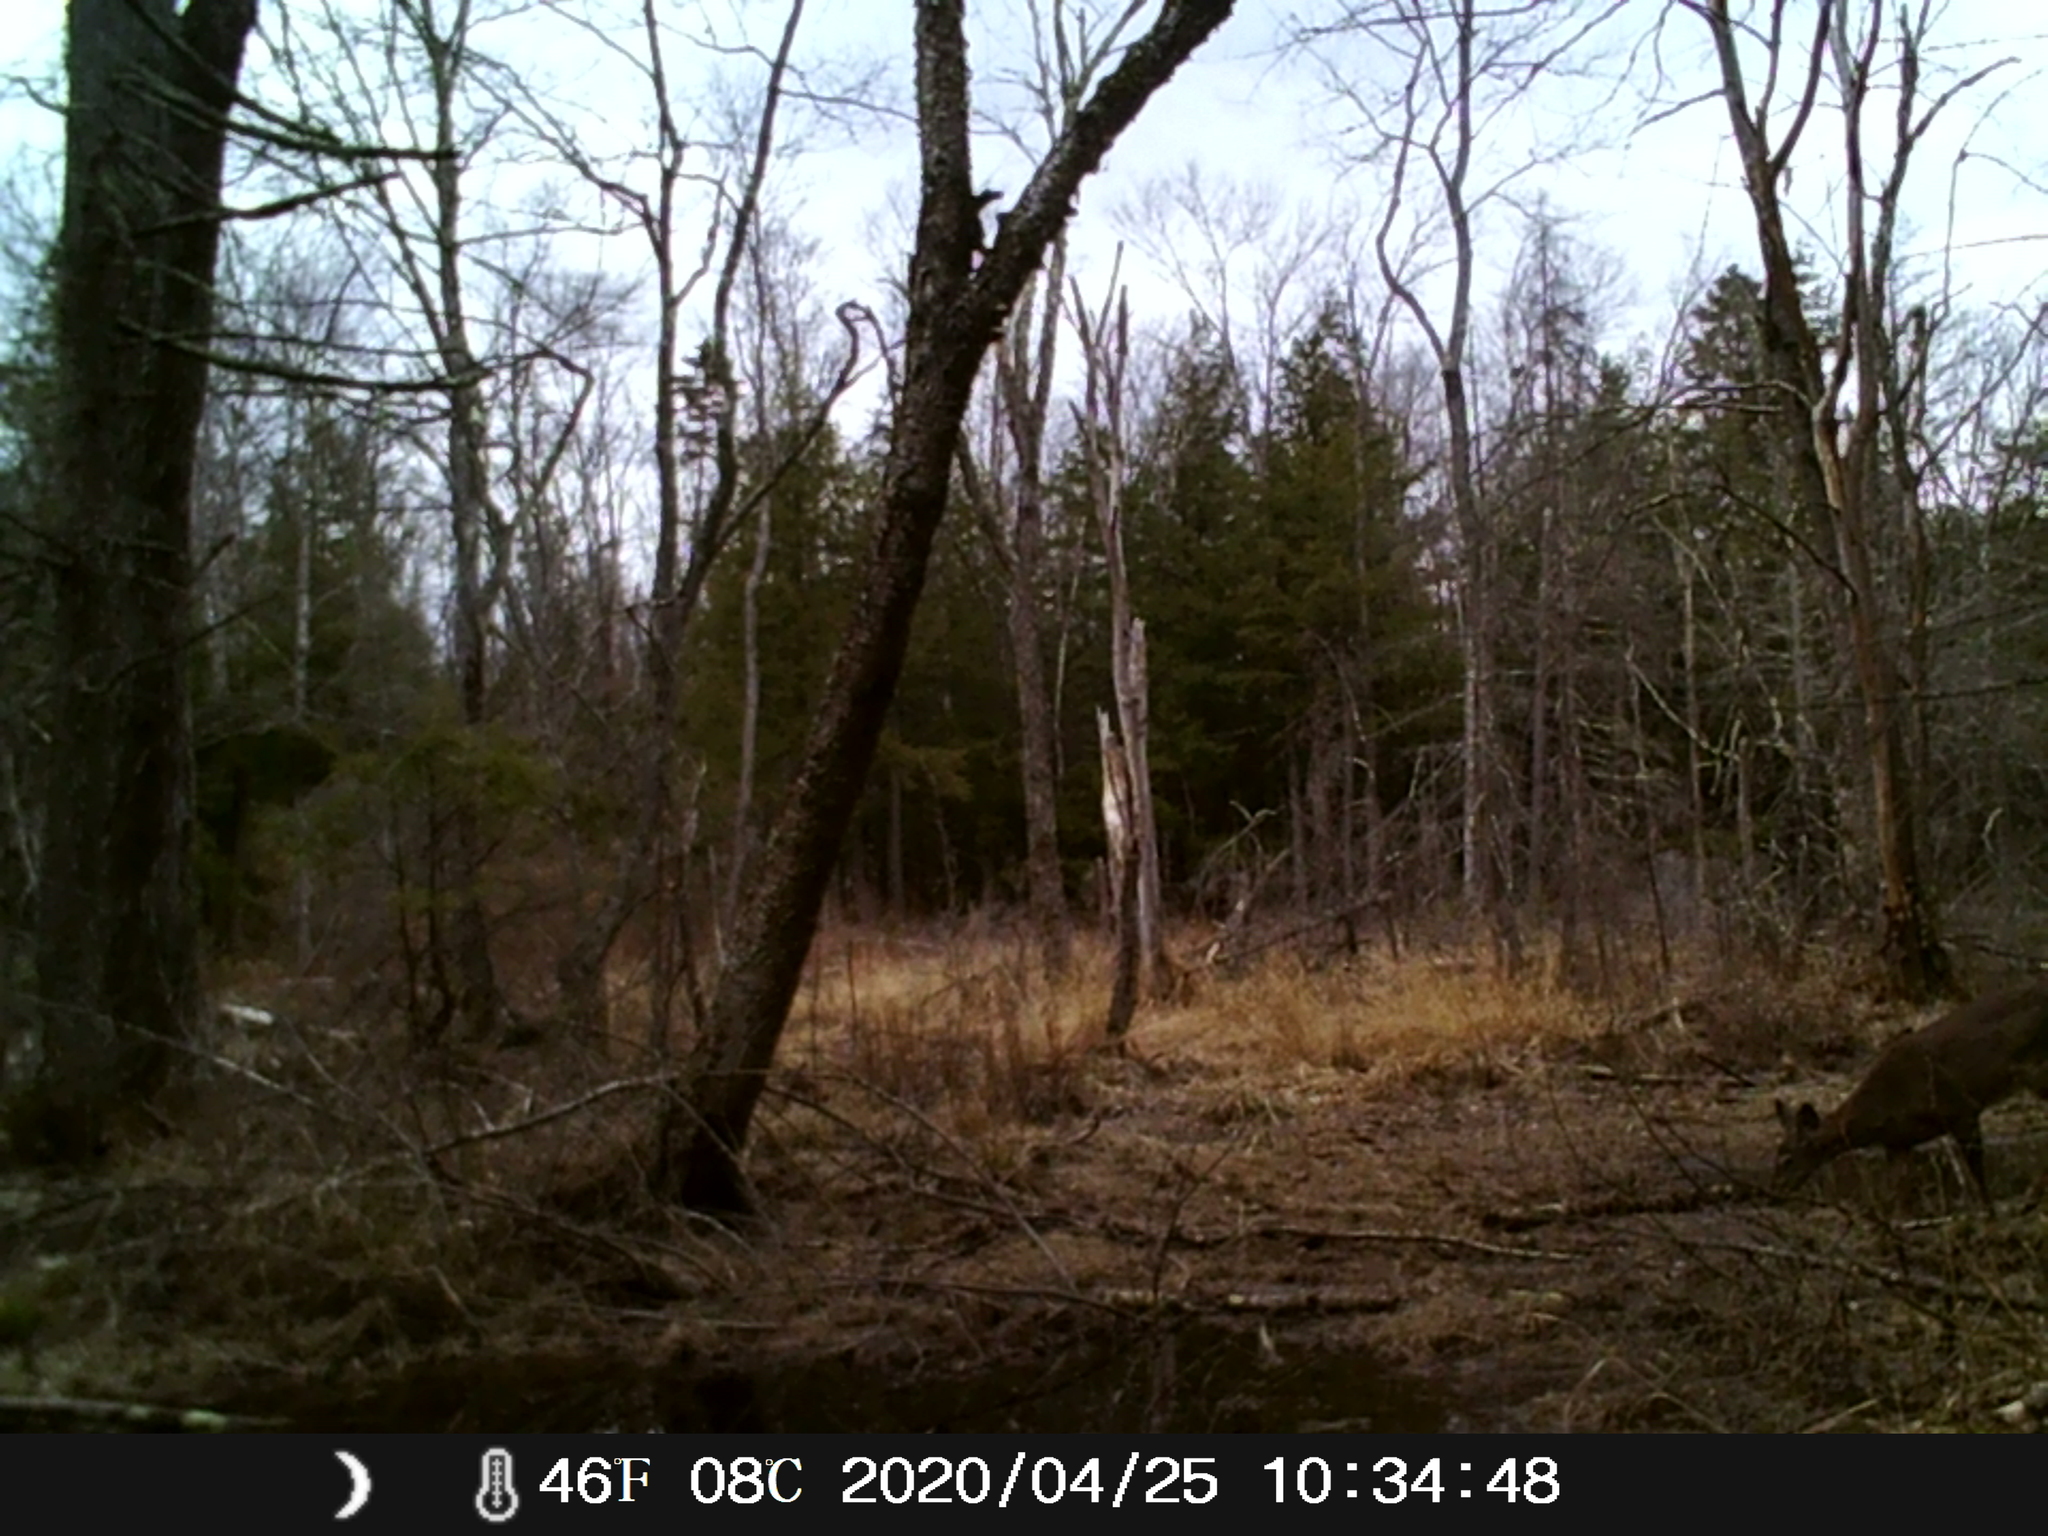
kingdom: Animalia
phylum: Chordata
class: Mammalia
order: Artiodactyla
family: Cervidae
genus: Odocoileus
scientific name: Odocoileus virginianus
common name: White-tailed deer
